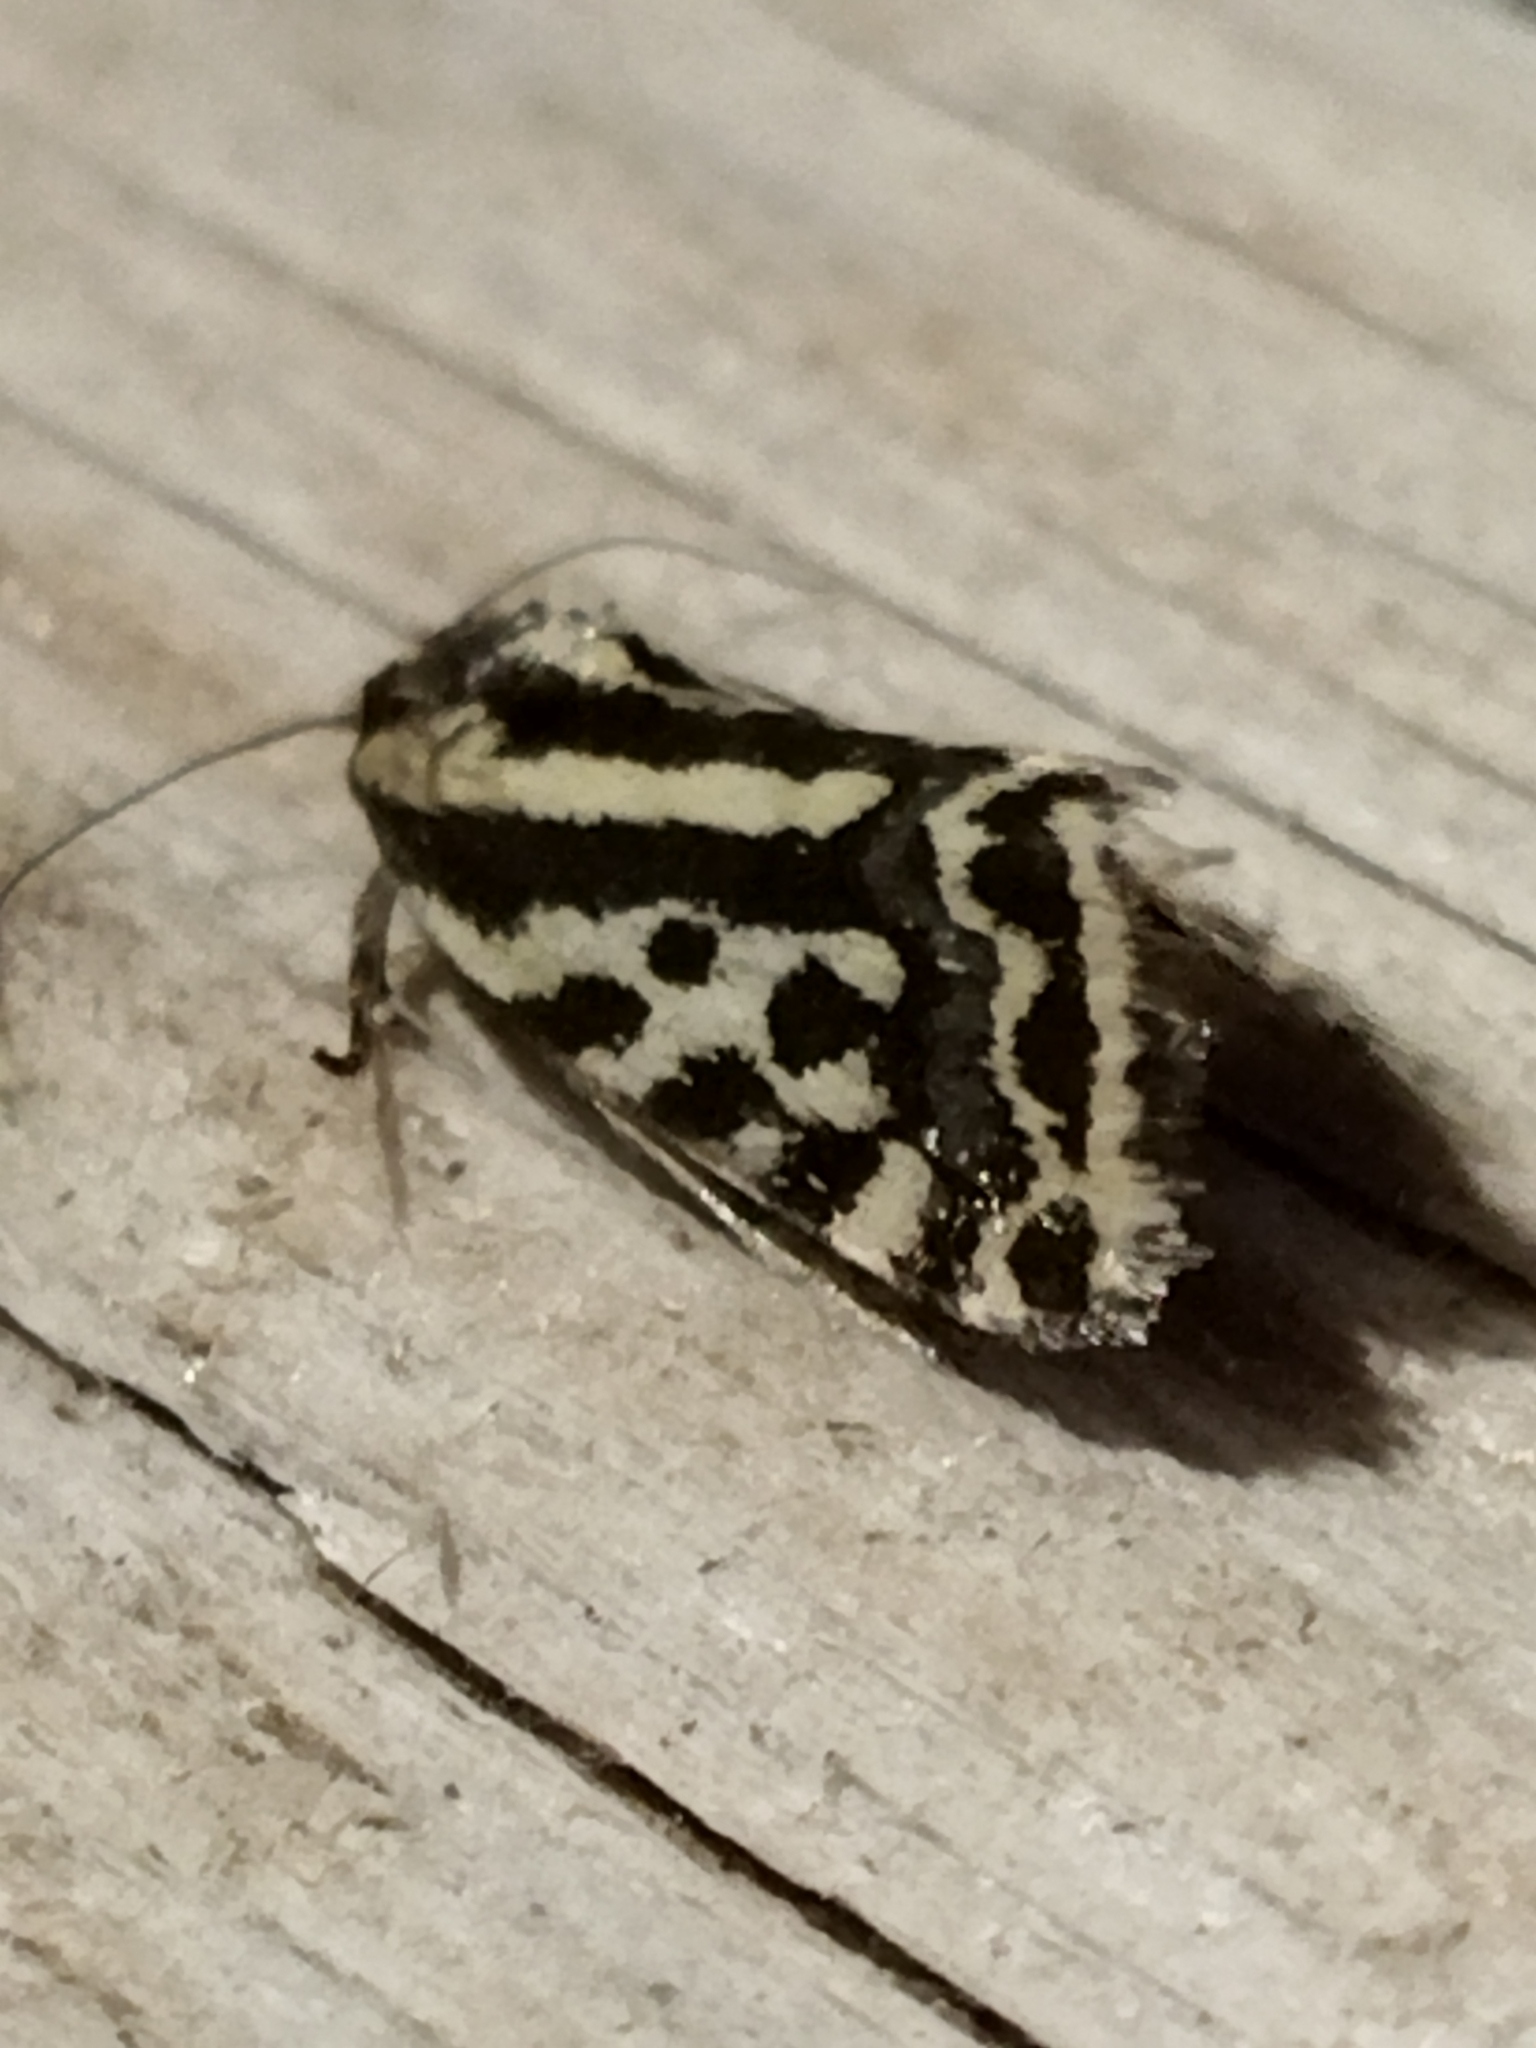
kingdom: Animalia
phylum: Arthropoda
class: Insecta
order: Lepidoptera
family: Noctuidae
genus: Acontia
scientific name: Acontia trabealis
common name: Spotted sulphur
